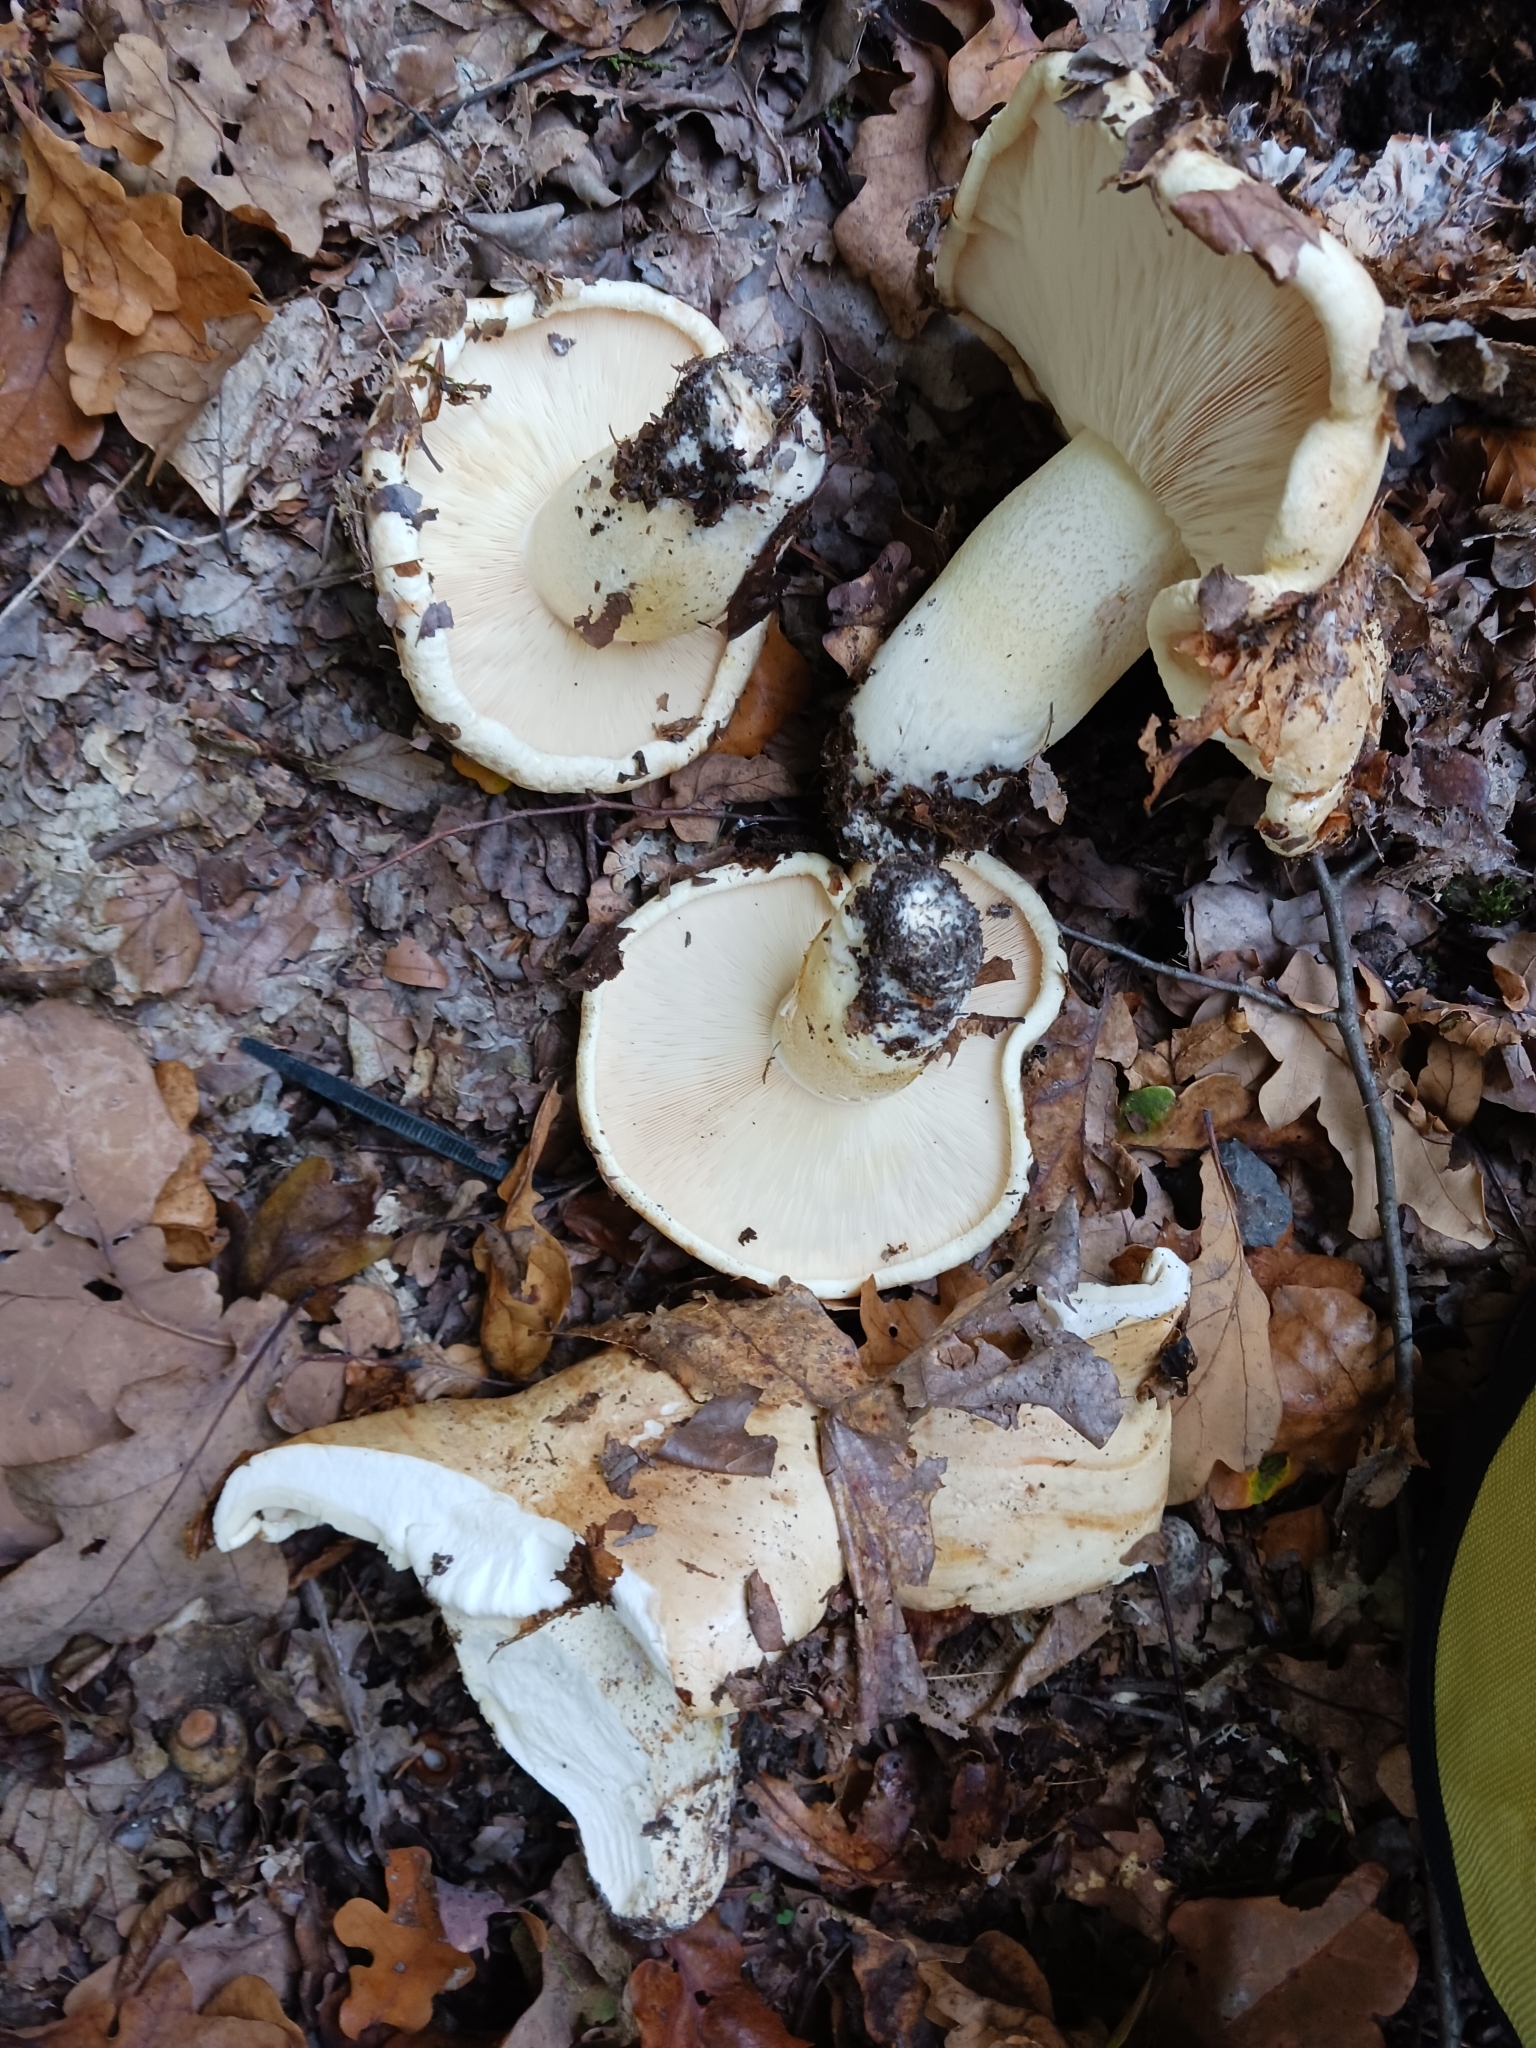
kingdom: Fungi
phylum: Basidiomycota
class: Agaricomycetes
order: Agaricales
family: Tricholomataceae
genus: Tricholoma
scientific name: Tricholoma acerbum
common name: Bitter knight
